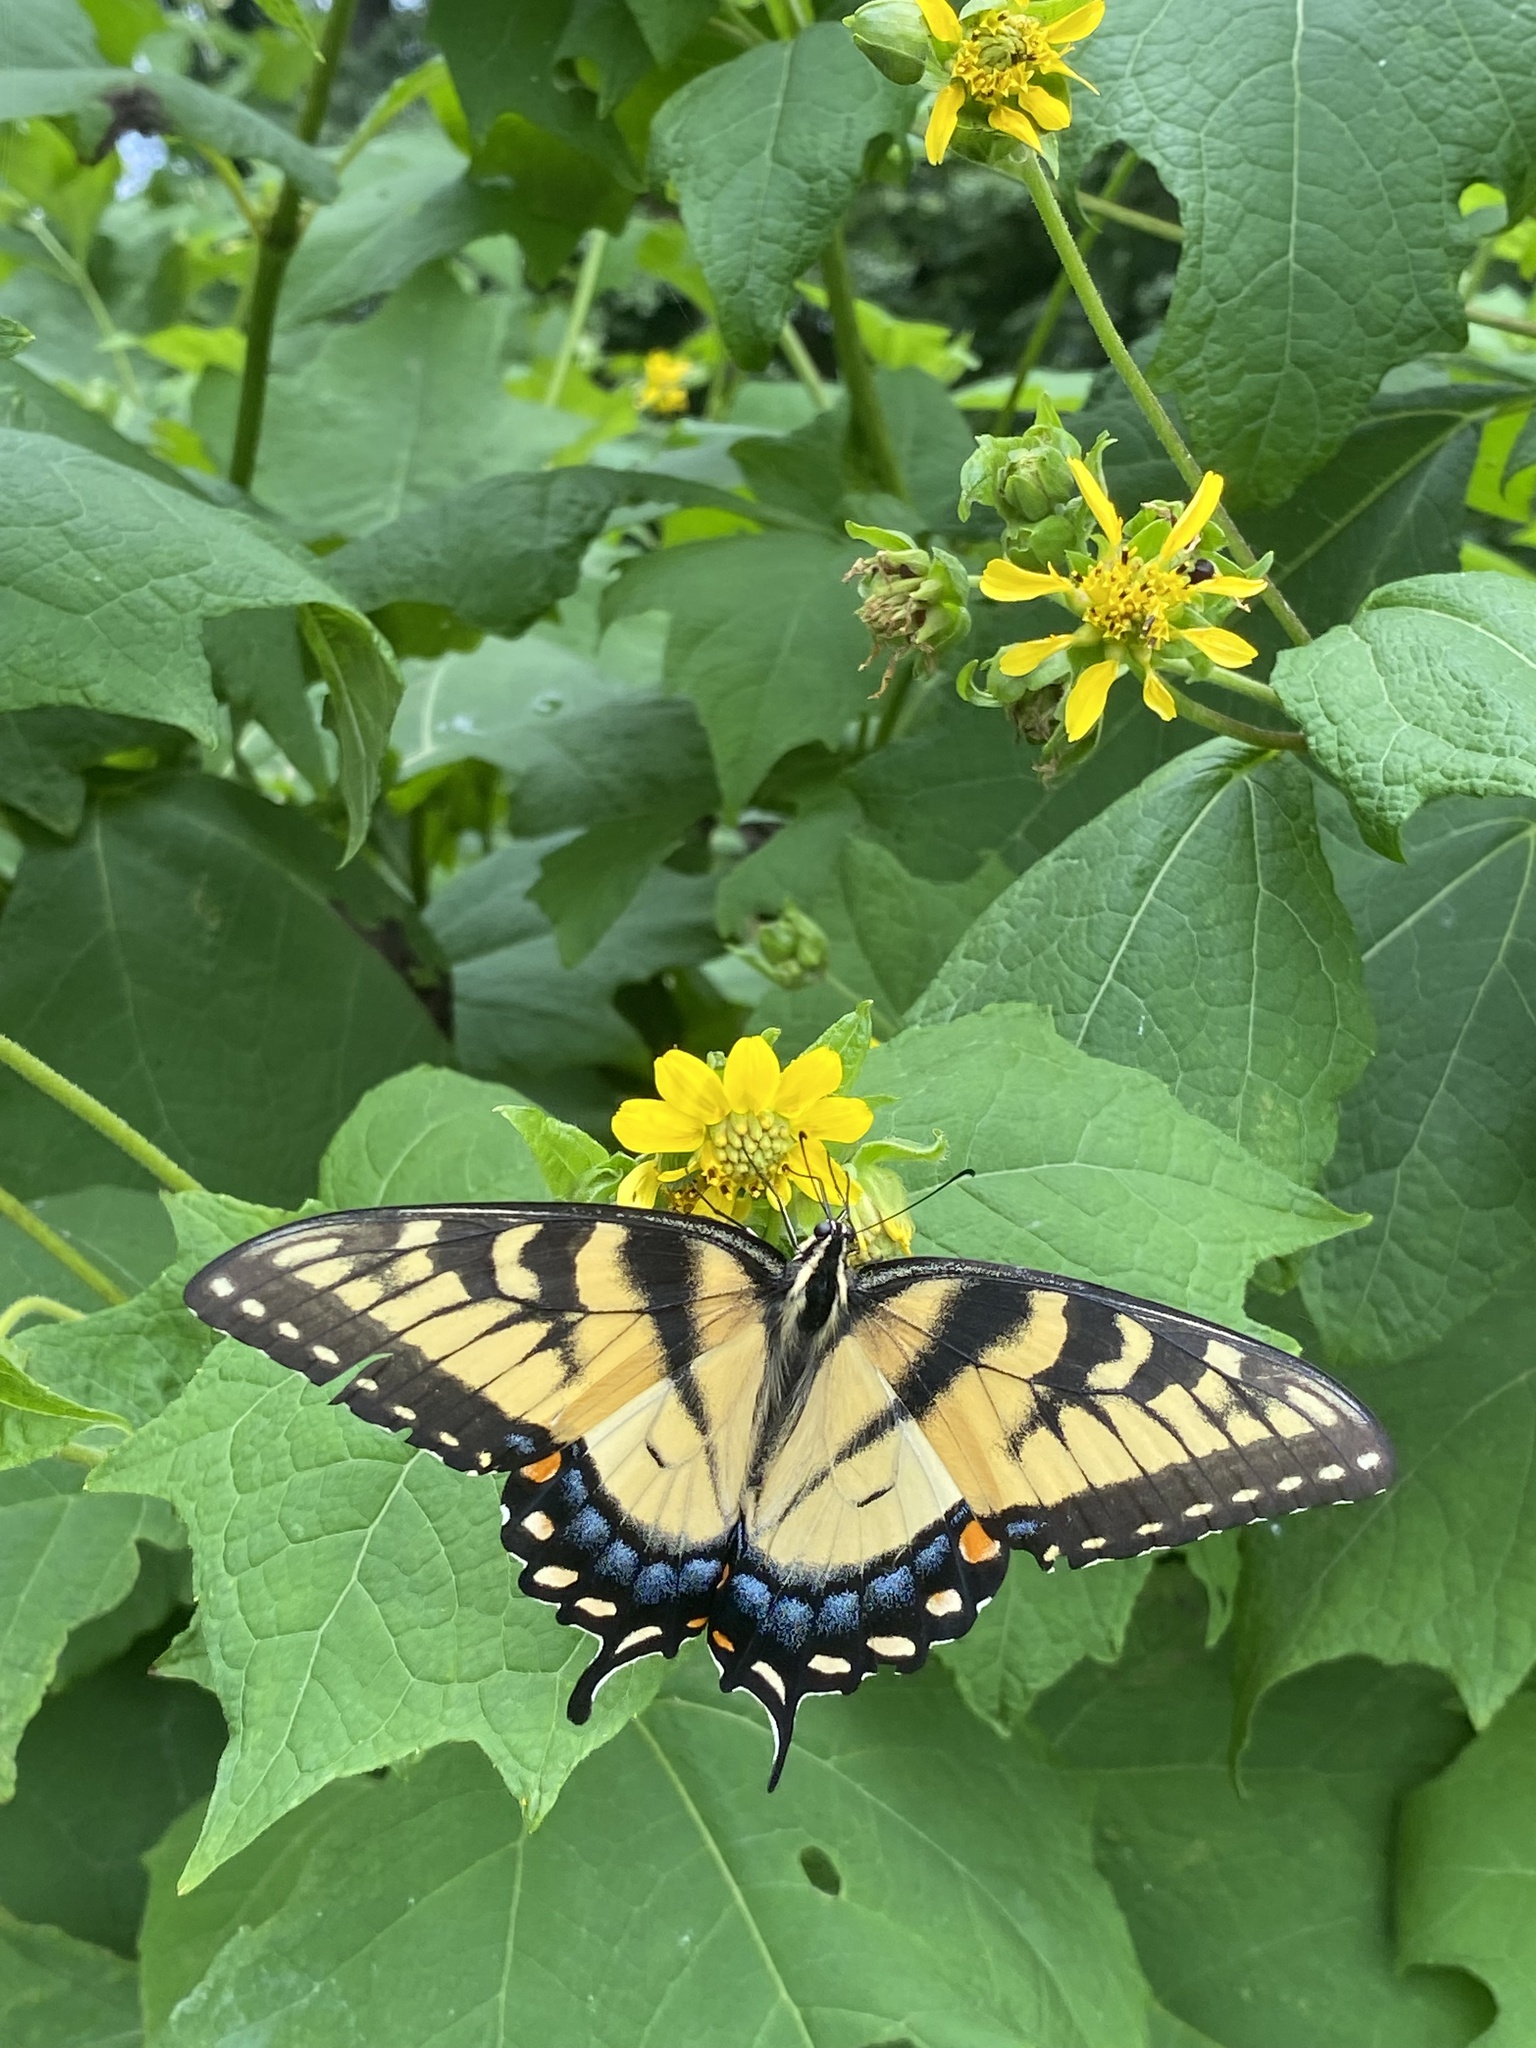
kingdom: Animalia
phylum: Arthropoda
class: Insecta
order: Lepidoptera
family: Papilionidae
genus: Papilio
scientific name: Papilio glaucus
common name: Tiger swallowtail
